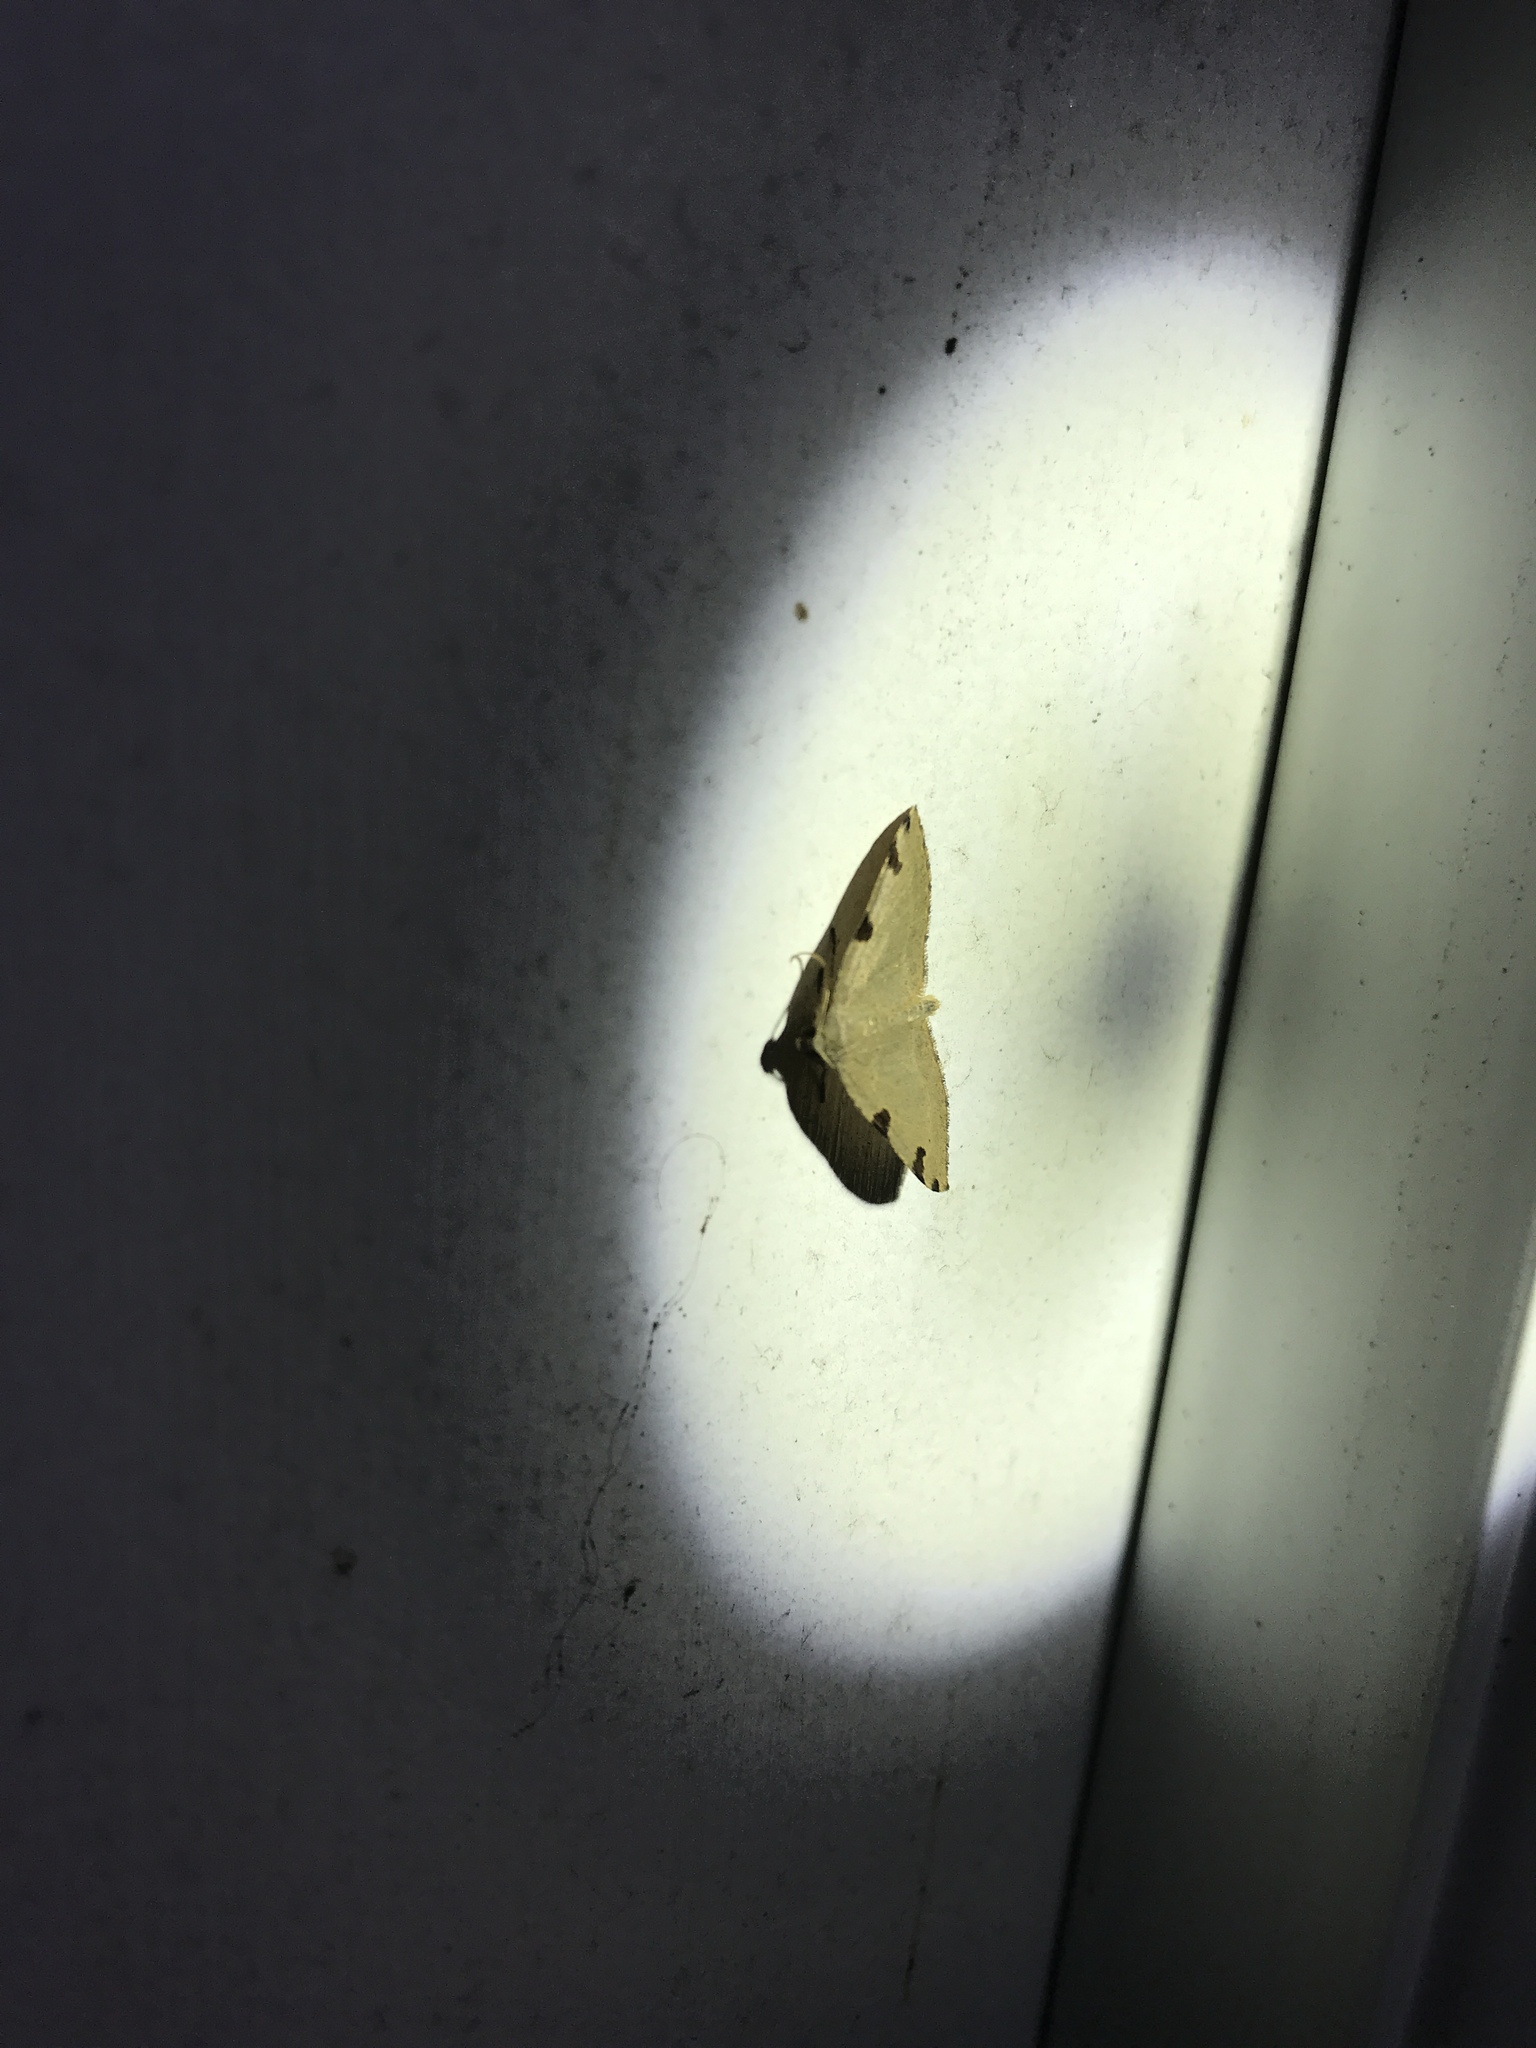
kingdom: Animalia
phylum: Arthropoda
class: Insecta
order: Lepidoptera
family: Geometridae
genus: Heterophleps
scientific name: Heterophleps triguttaria
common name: Three-spotted fillip
